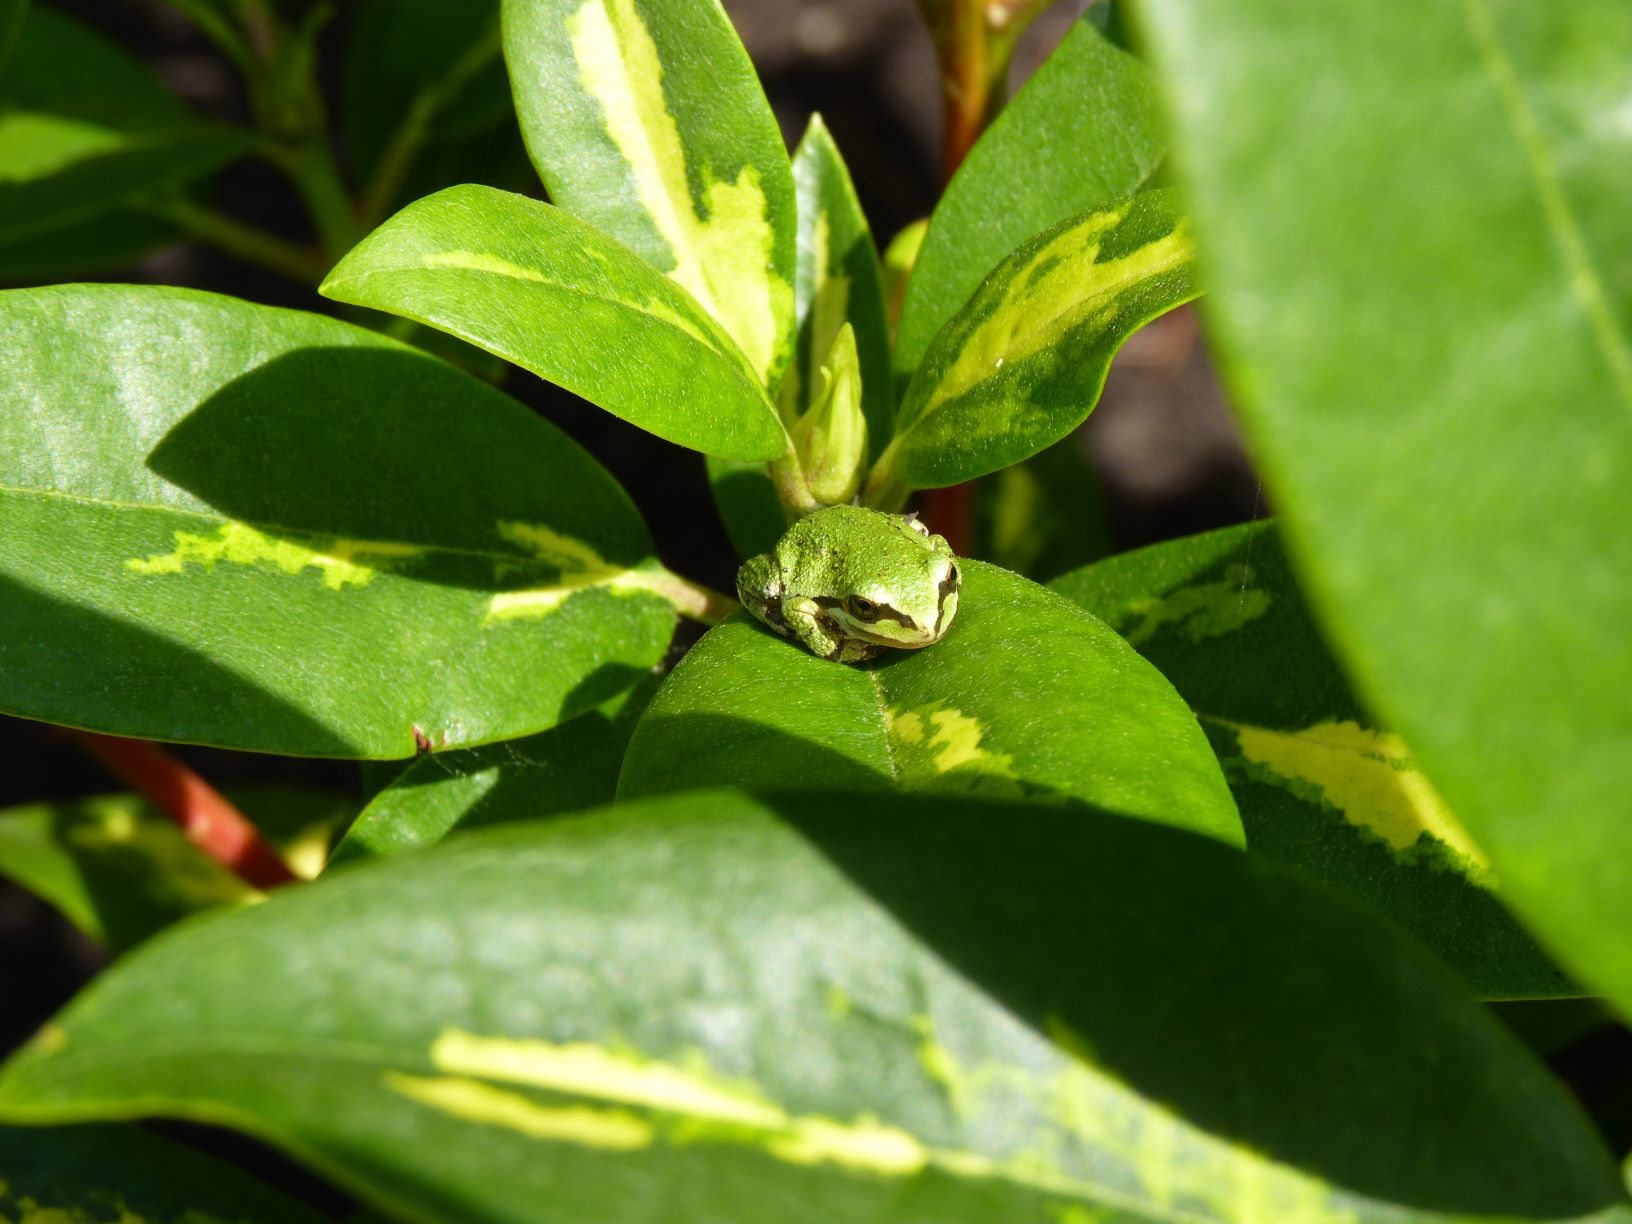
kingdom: Animalia
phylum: Chordata
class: Amphibia
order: Anura
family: Hylidae
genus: Pseudacris
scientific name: Pseudacris regilla
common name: Pacific chorus frog
